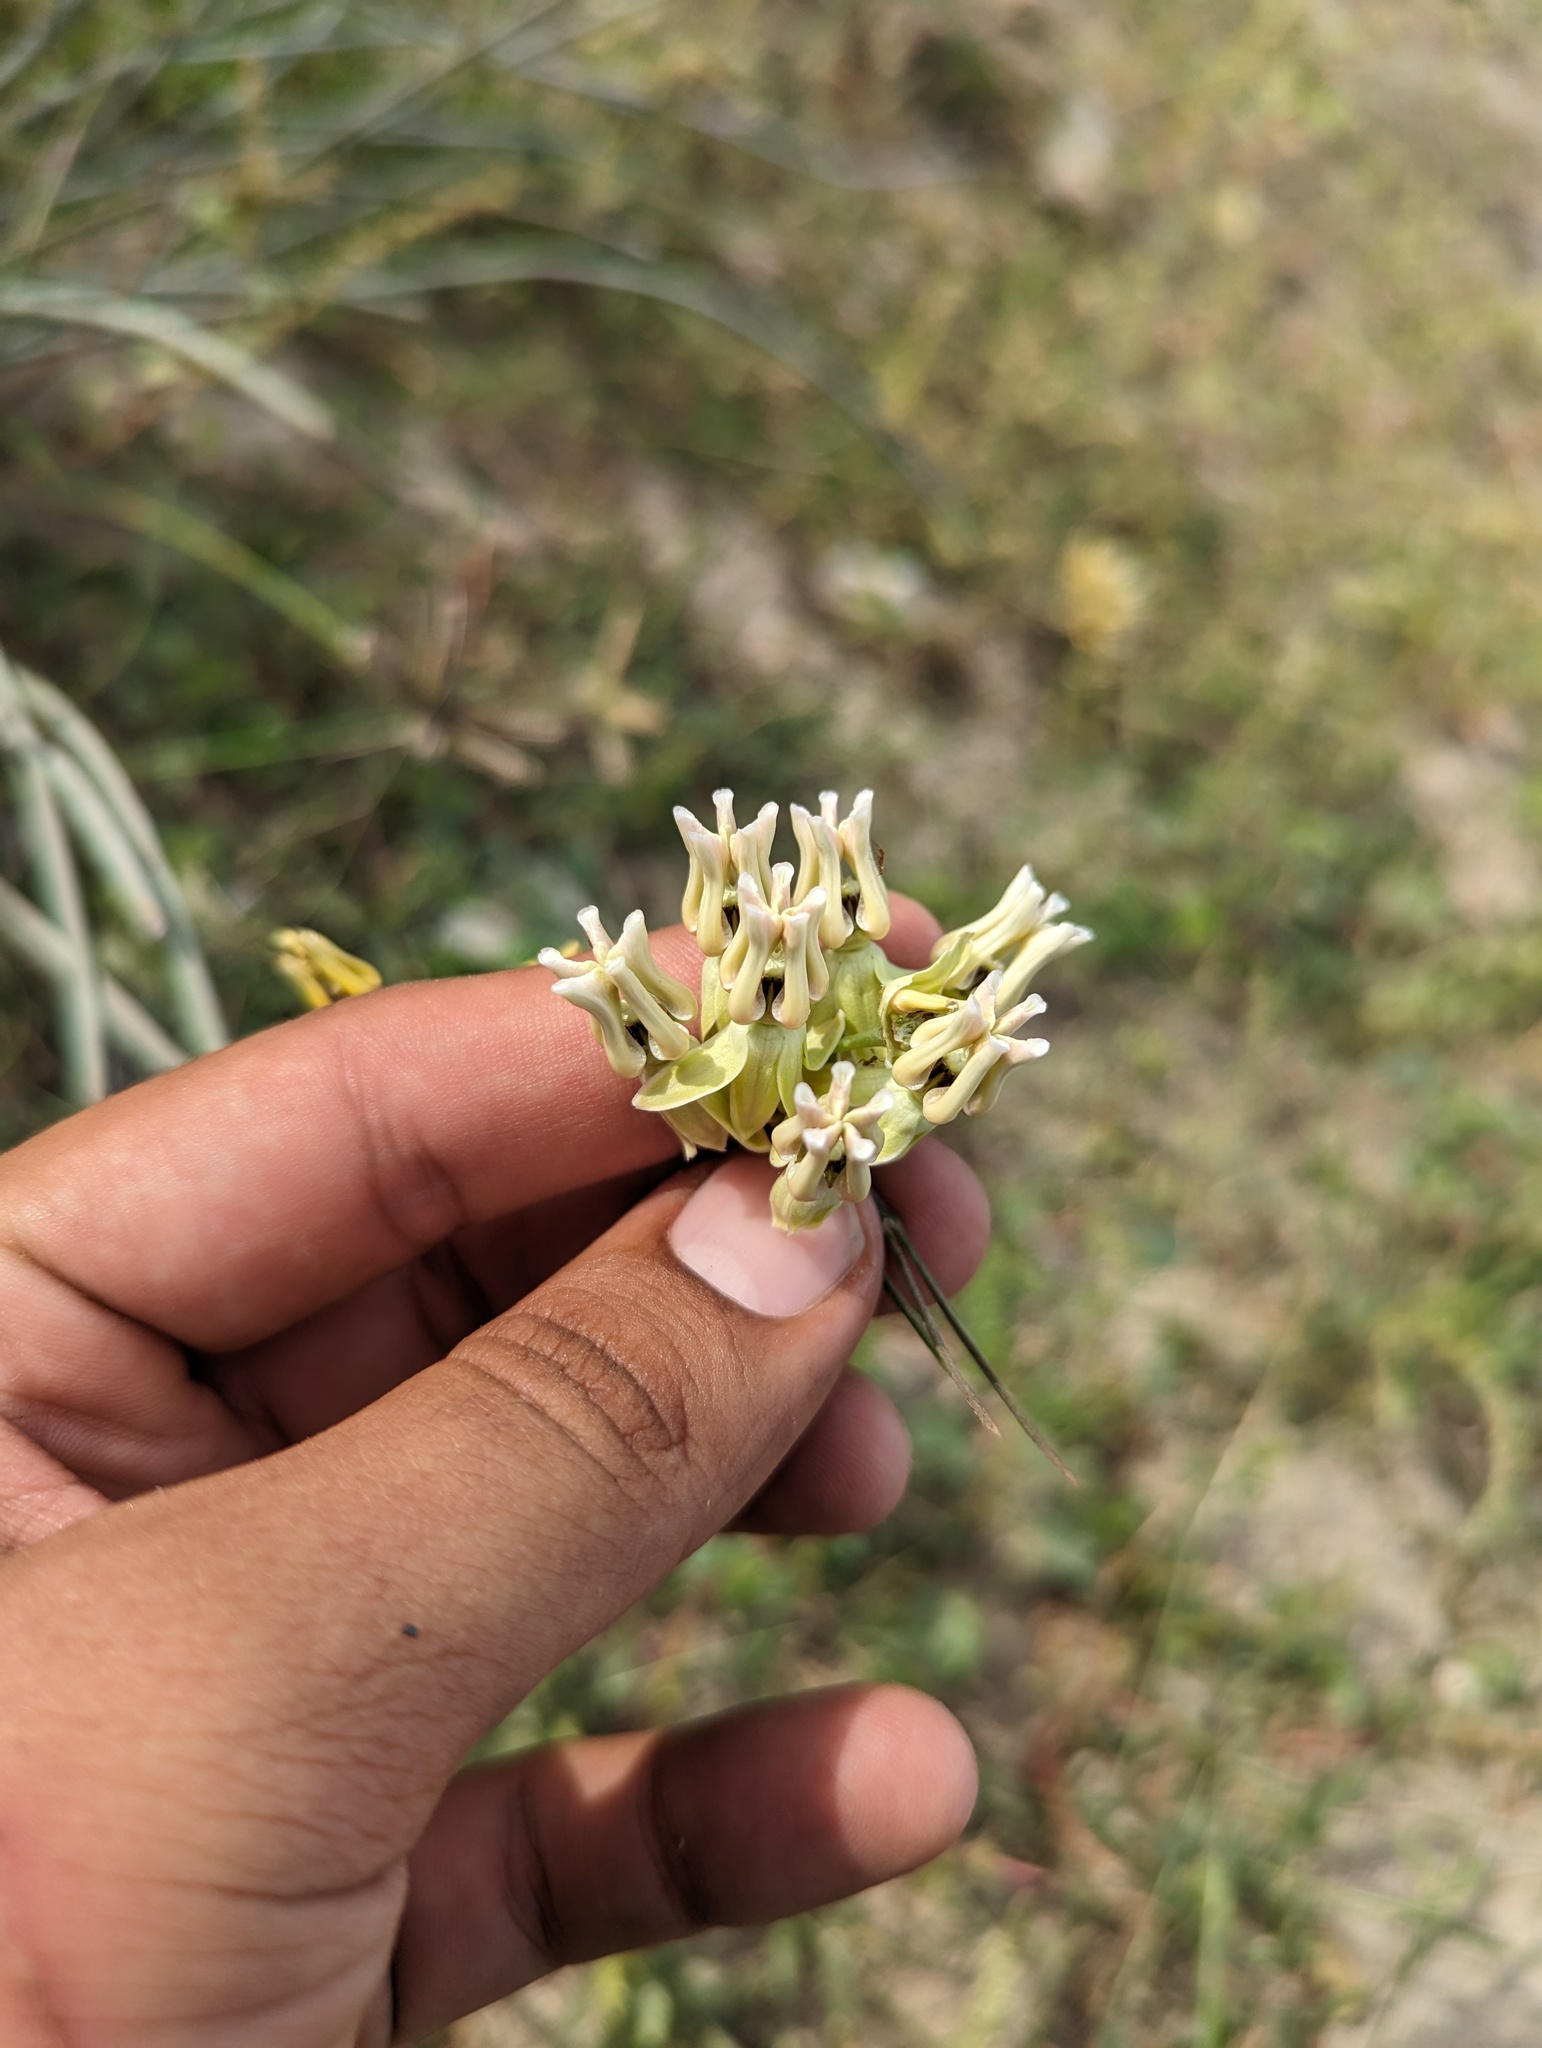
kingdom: Plantae
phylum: Tracheophyta
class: Magnoliopsida
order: Gentianales
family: Apocynaceae
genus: Asclepias
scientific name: Asclepias subulata
